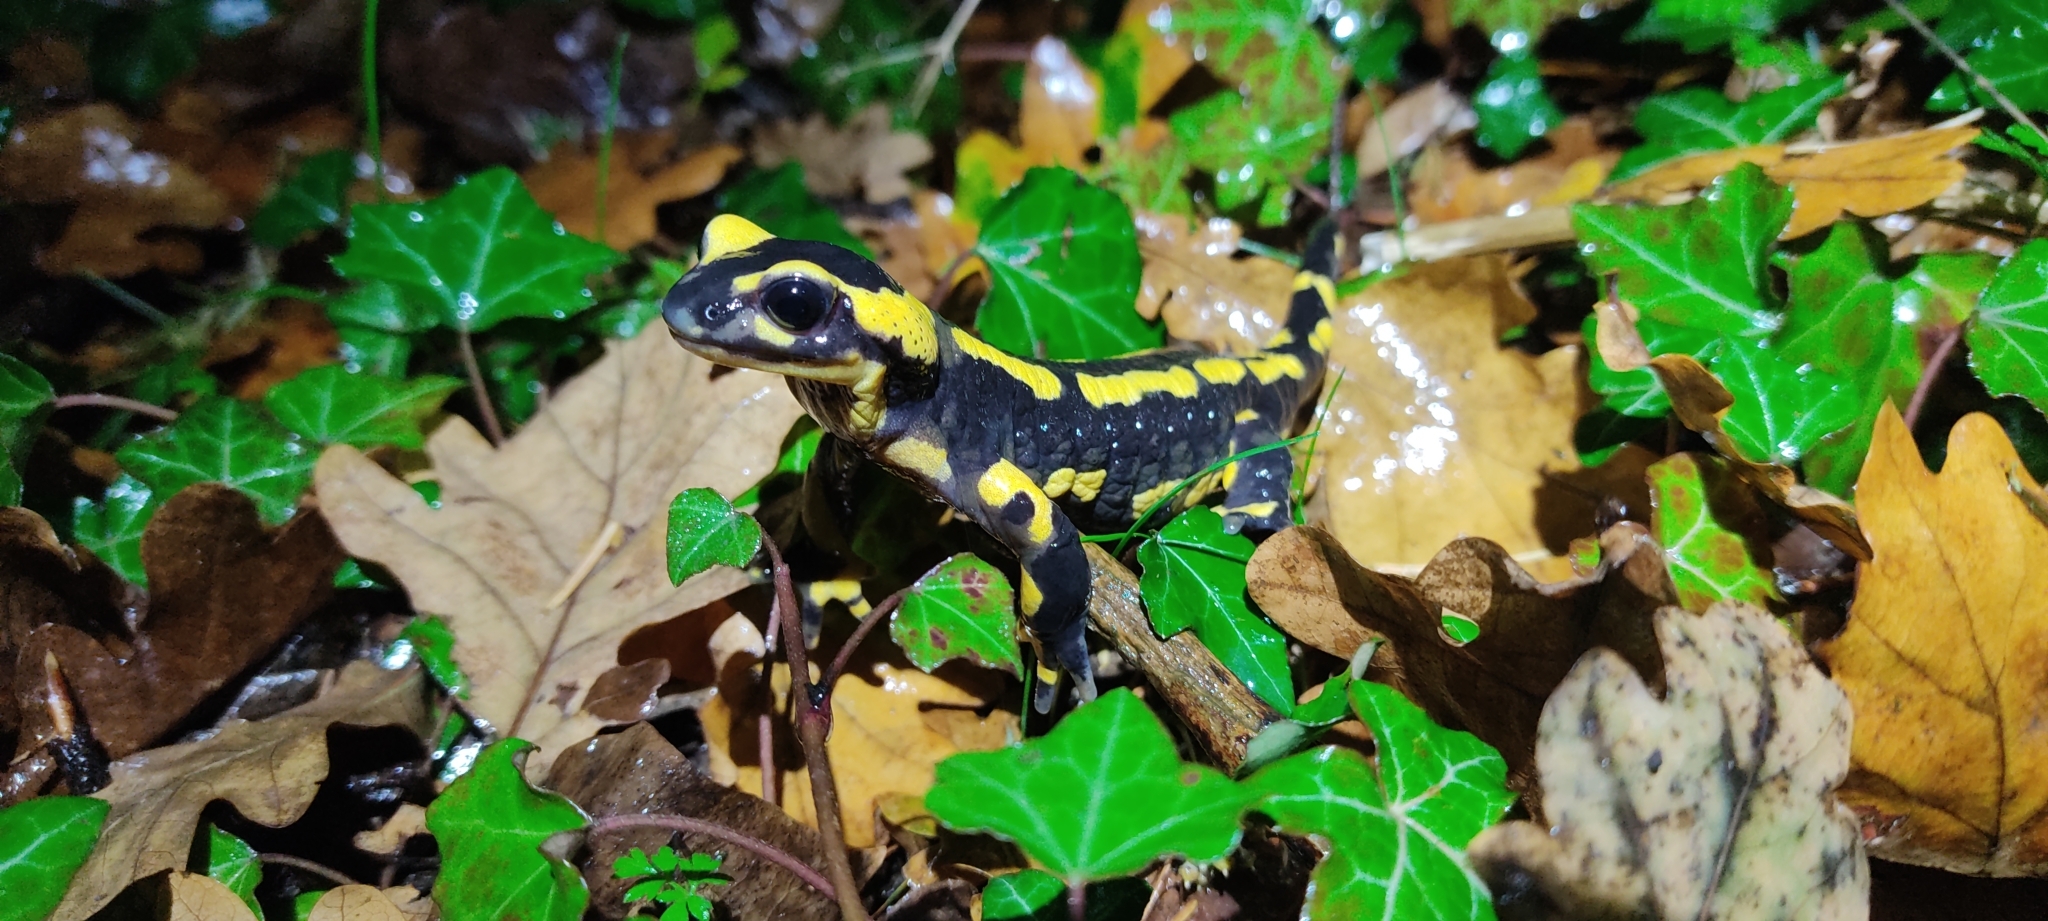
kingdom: Animalia
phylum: Chordata
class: Amphibia
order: Caudata
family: Salamandridae
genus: Salamandra
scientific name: Salamandra salamandra
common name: Fire salamander
